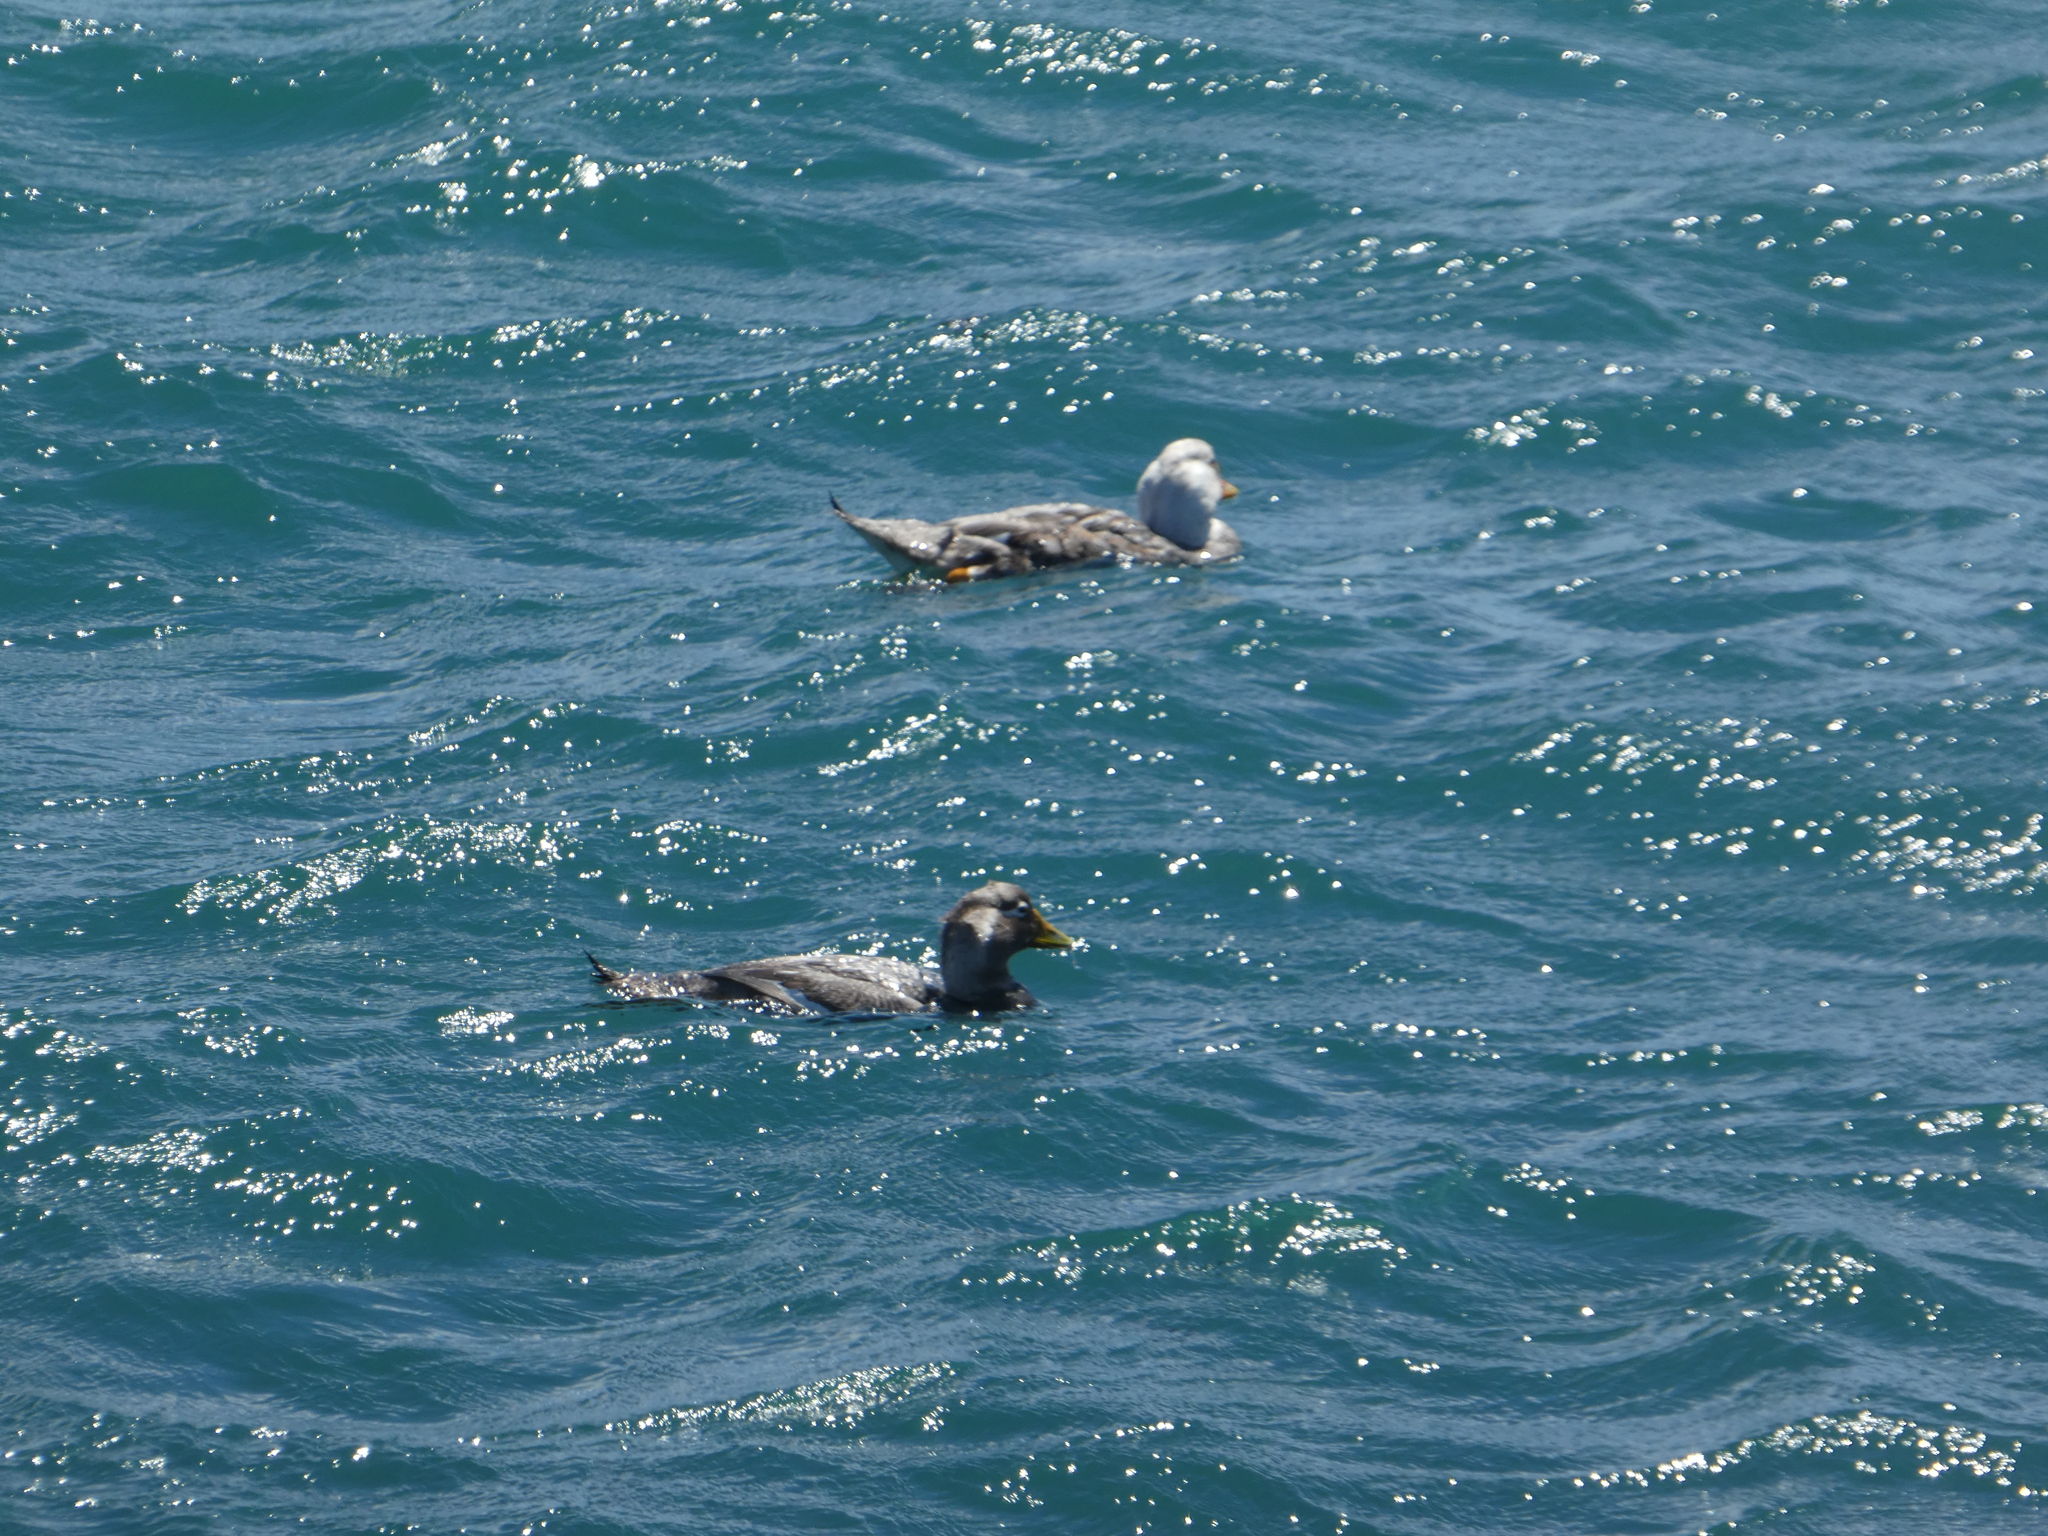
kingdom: Animalia
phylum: Chordata
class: Aves
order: Anseriformes
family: Anatidae
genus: Tachyeres
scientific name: Tachyeres leucocephalus
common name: Chubut steamer duck
